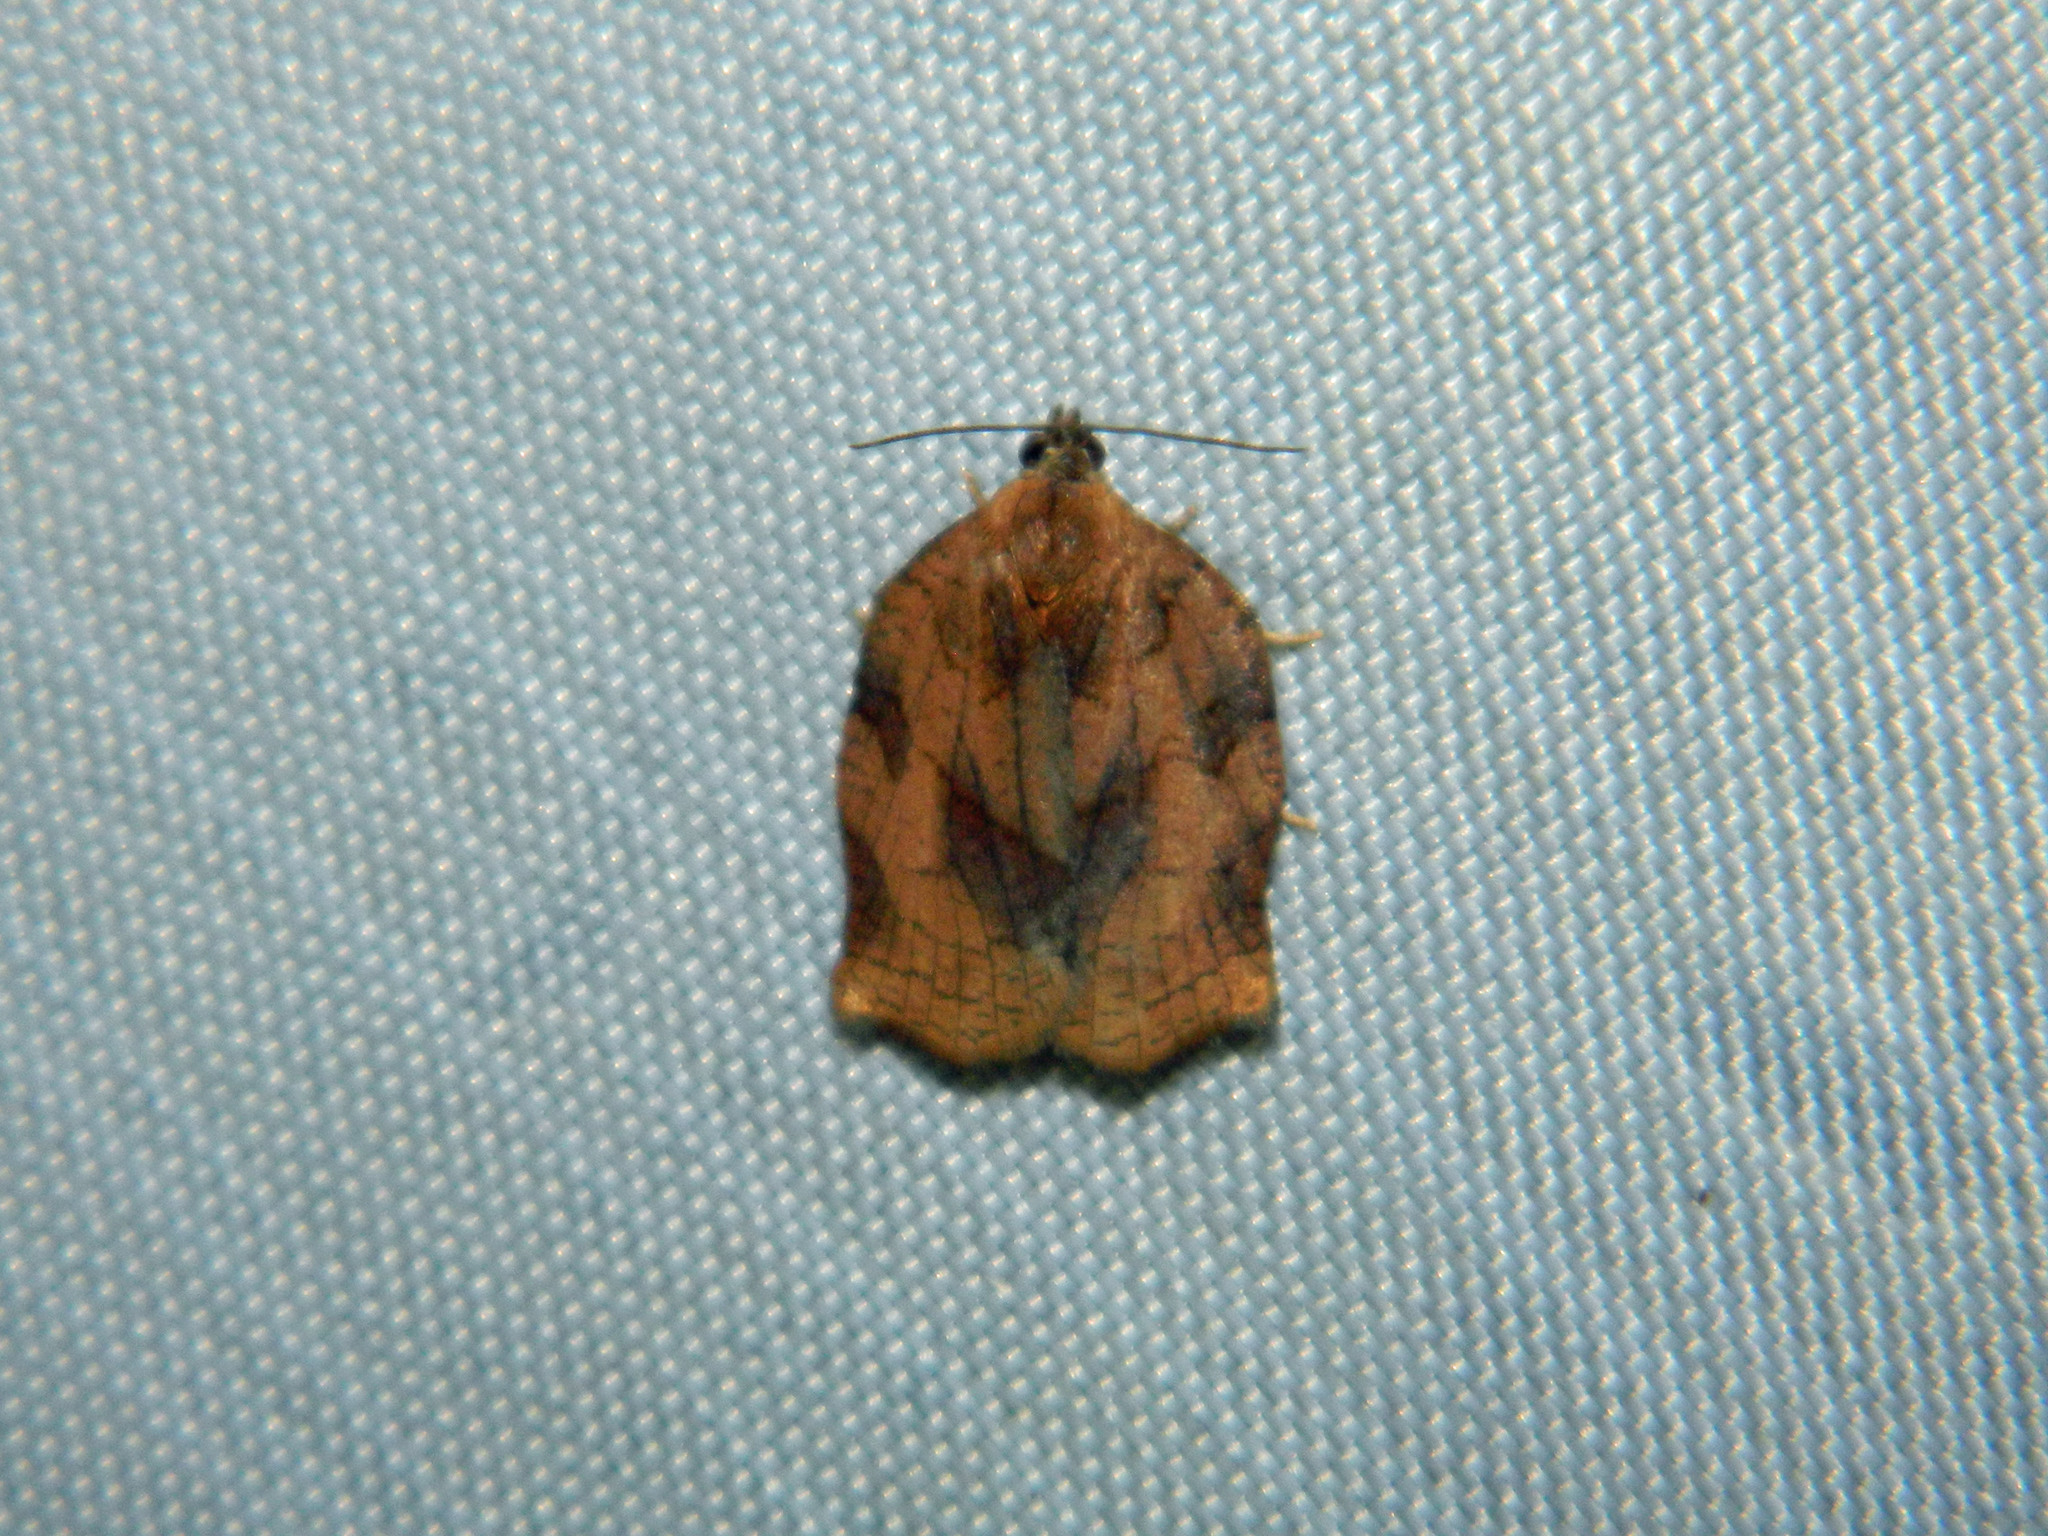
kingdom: Animalia
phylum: Arthropoda
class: Insecta
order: Lepidoptera
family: Tortricidae
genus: Archips
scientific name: Archips purpurana
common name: Omnivorous leafroller
